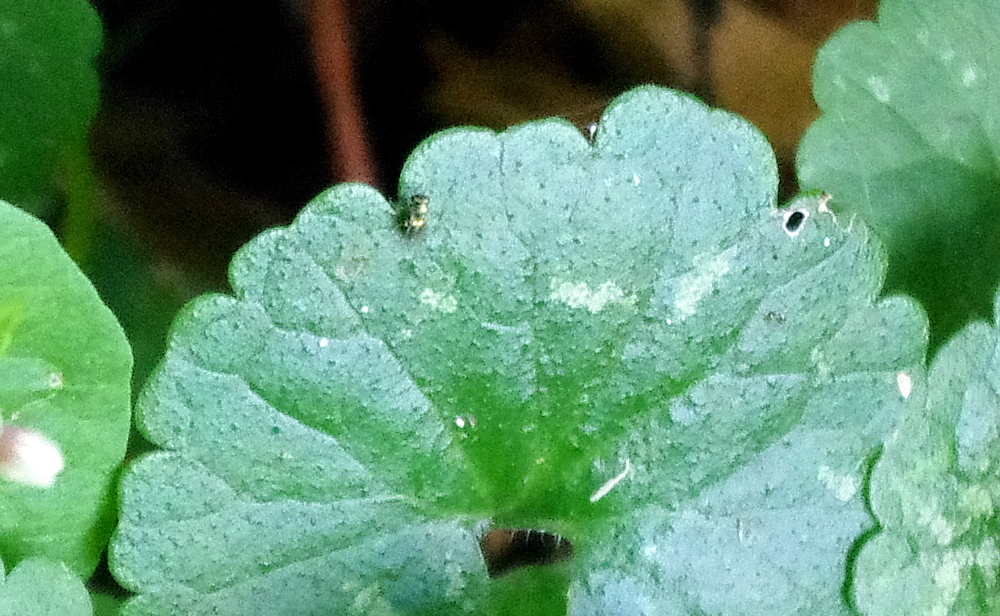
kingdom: Plantae
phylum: Tracheophyta
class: Magnoliopsida
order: Lamiales
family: Lamiaceae
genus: Glechoma
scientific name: Glechoma hederacea
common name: Ground ivy
